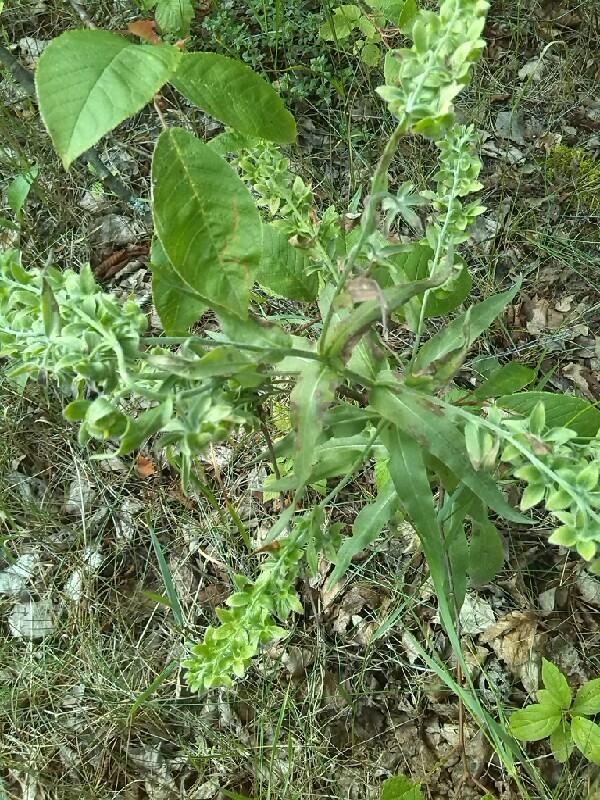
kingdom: Plantae
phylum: Tracheophyta
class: Magnoliopsida
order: Boraginales
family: Boraginaceae
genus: Cynoglossum
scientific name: Cynoglossum officinale
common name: Hound's-tongue
